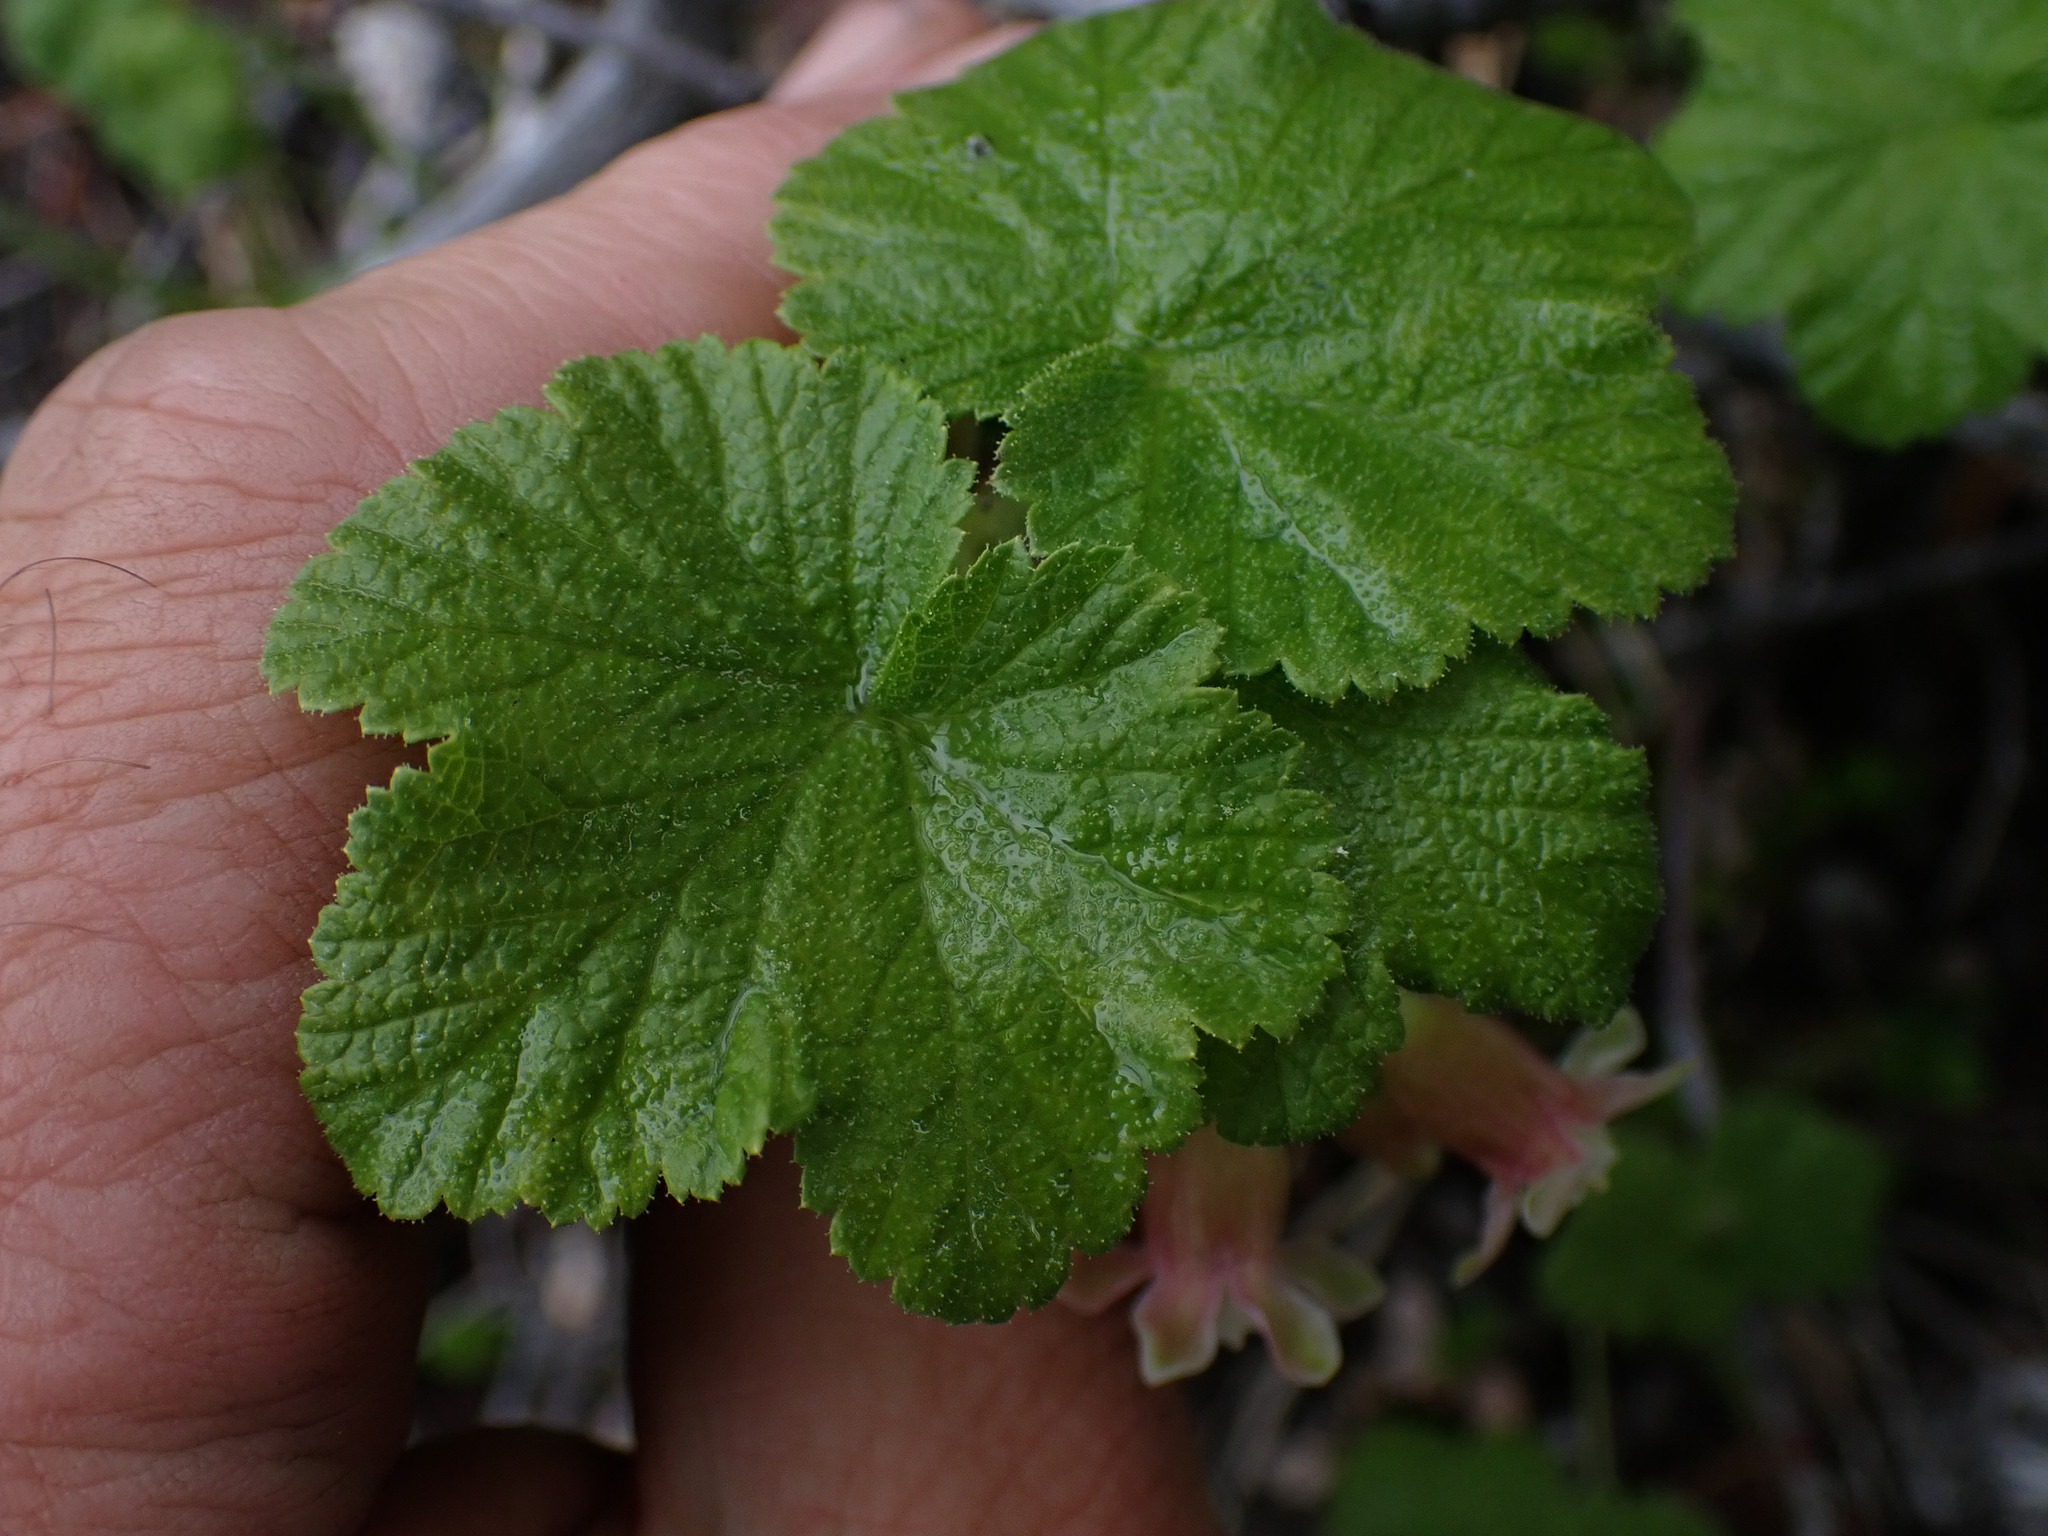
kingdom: Plantae
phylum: Tracheophyta
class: Magnoliopsida
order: Saxifragales
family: Grossulariaceae
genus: Ribes
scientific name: Ribes viscosissimum
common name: Sticky currant
